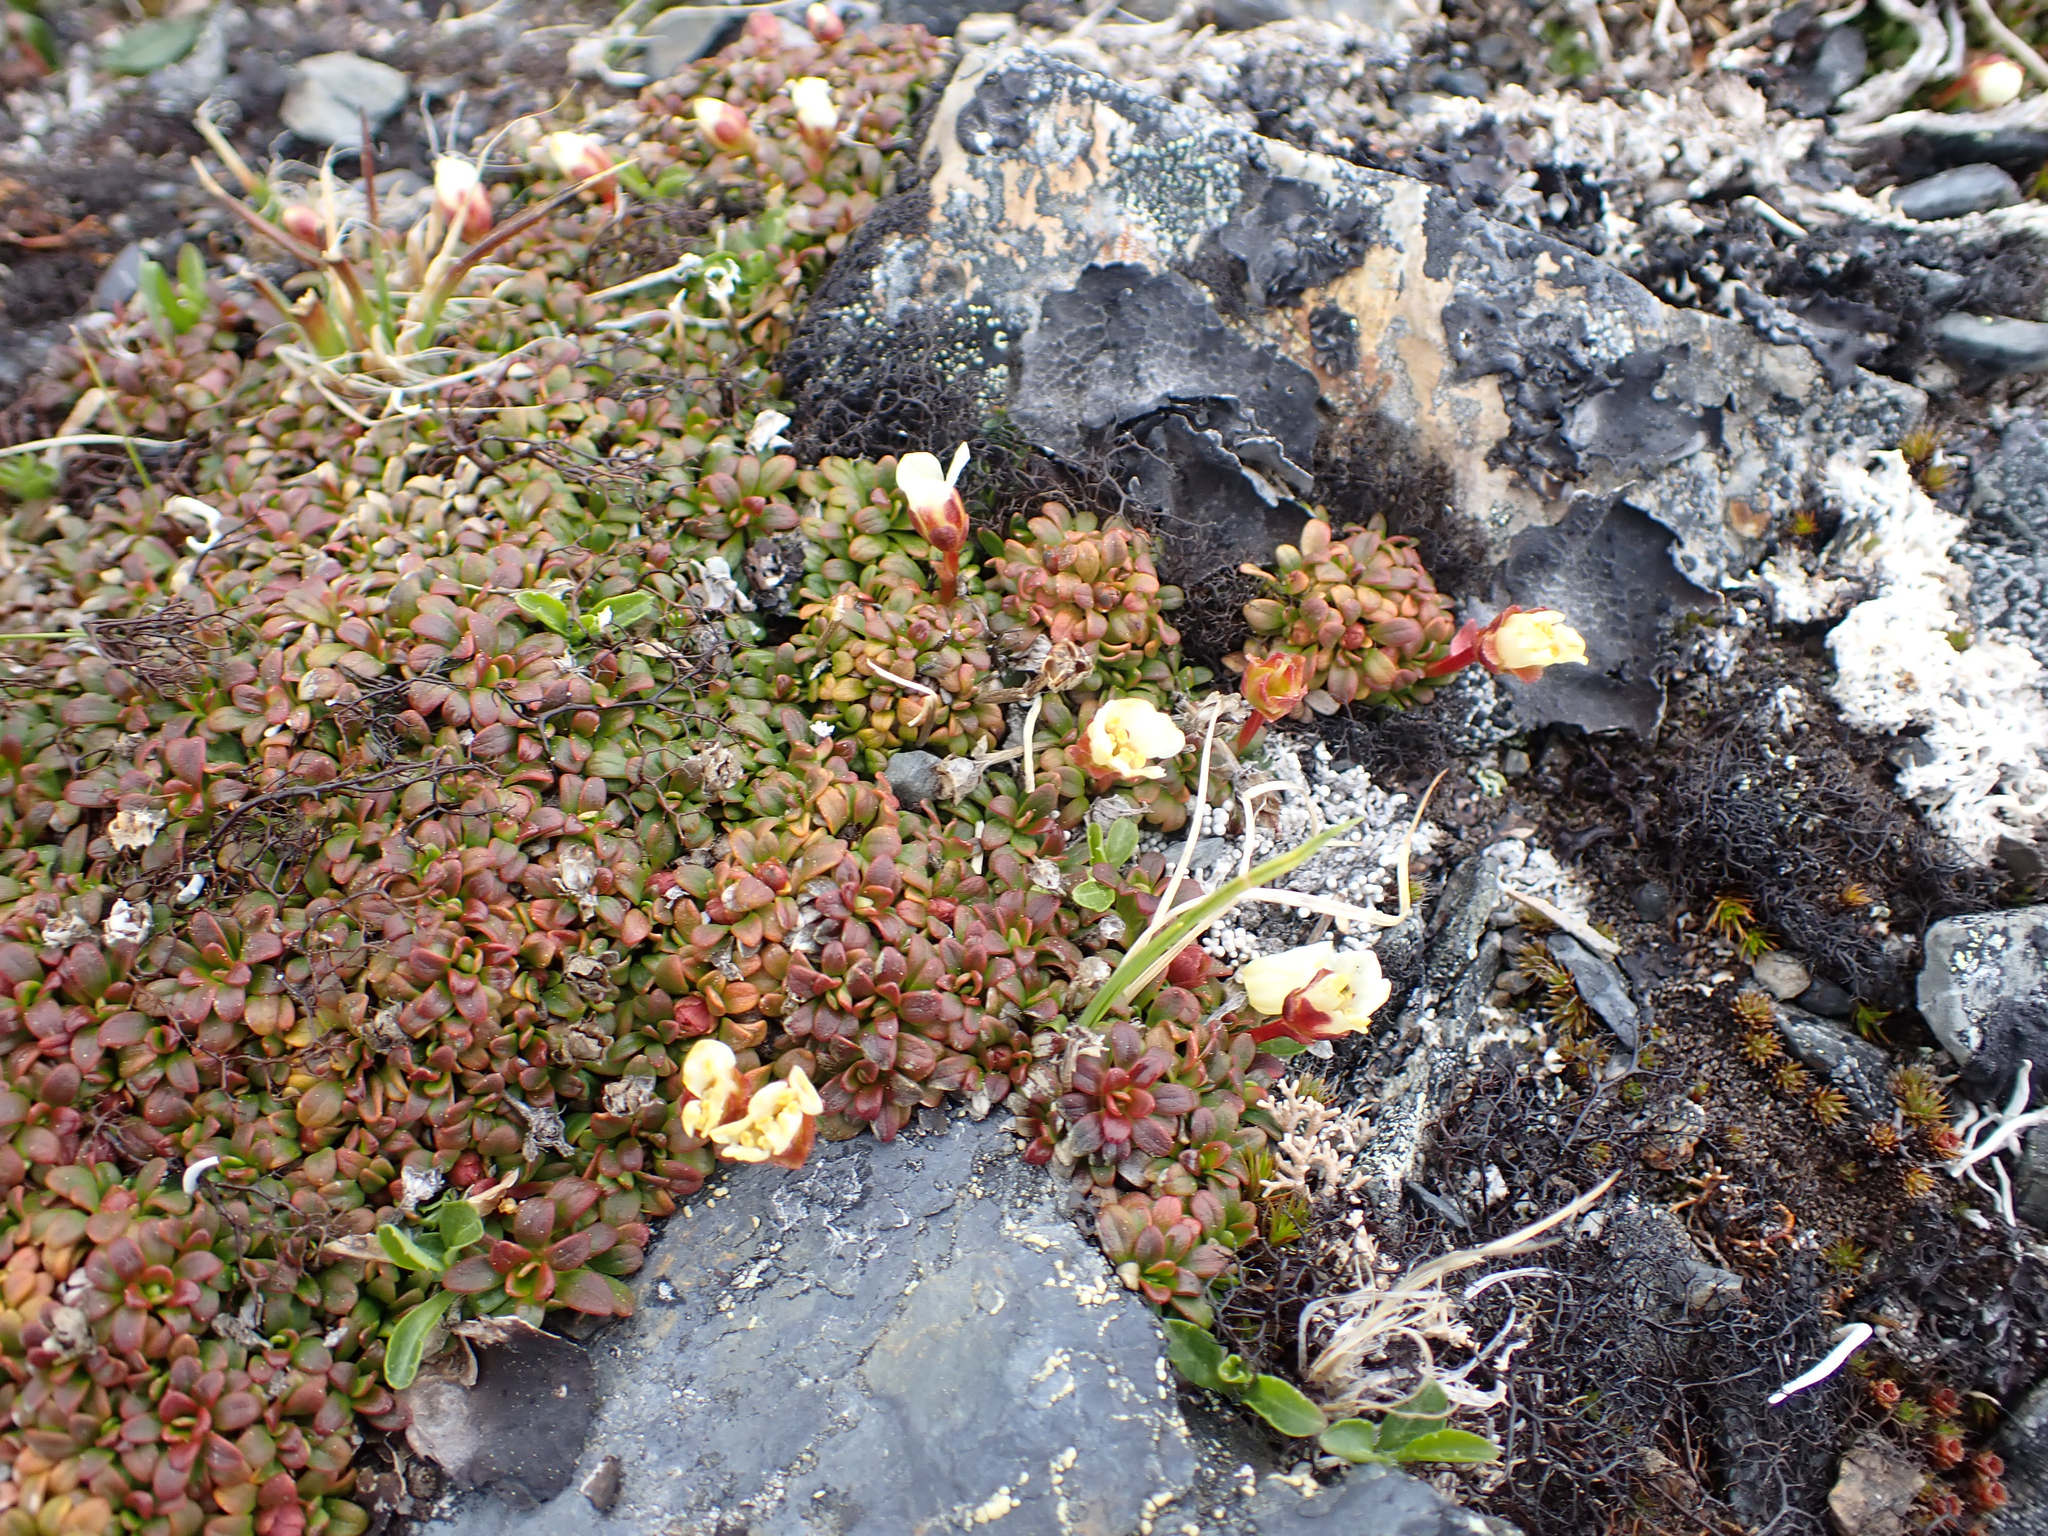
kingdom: Plantae
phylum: Tracheophyta
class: Magnoliopsida
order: Ericales
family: Diapensiaceae
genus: Diapensia
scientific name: Diapensia obovata
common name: Alaska diapensia
